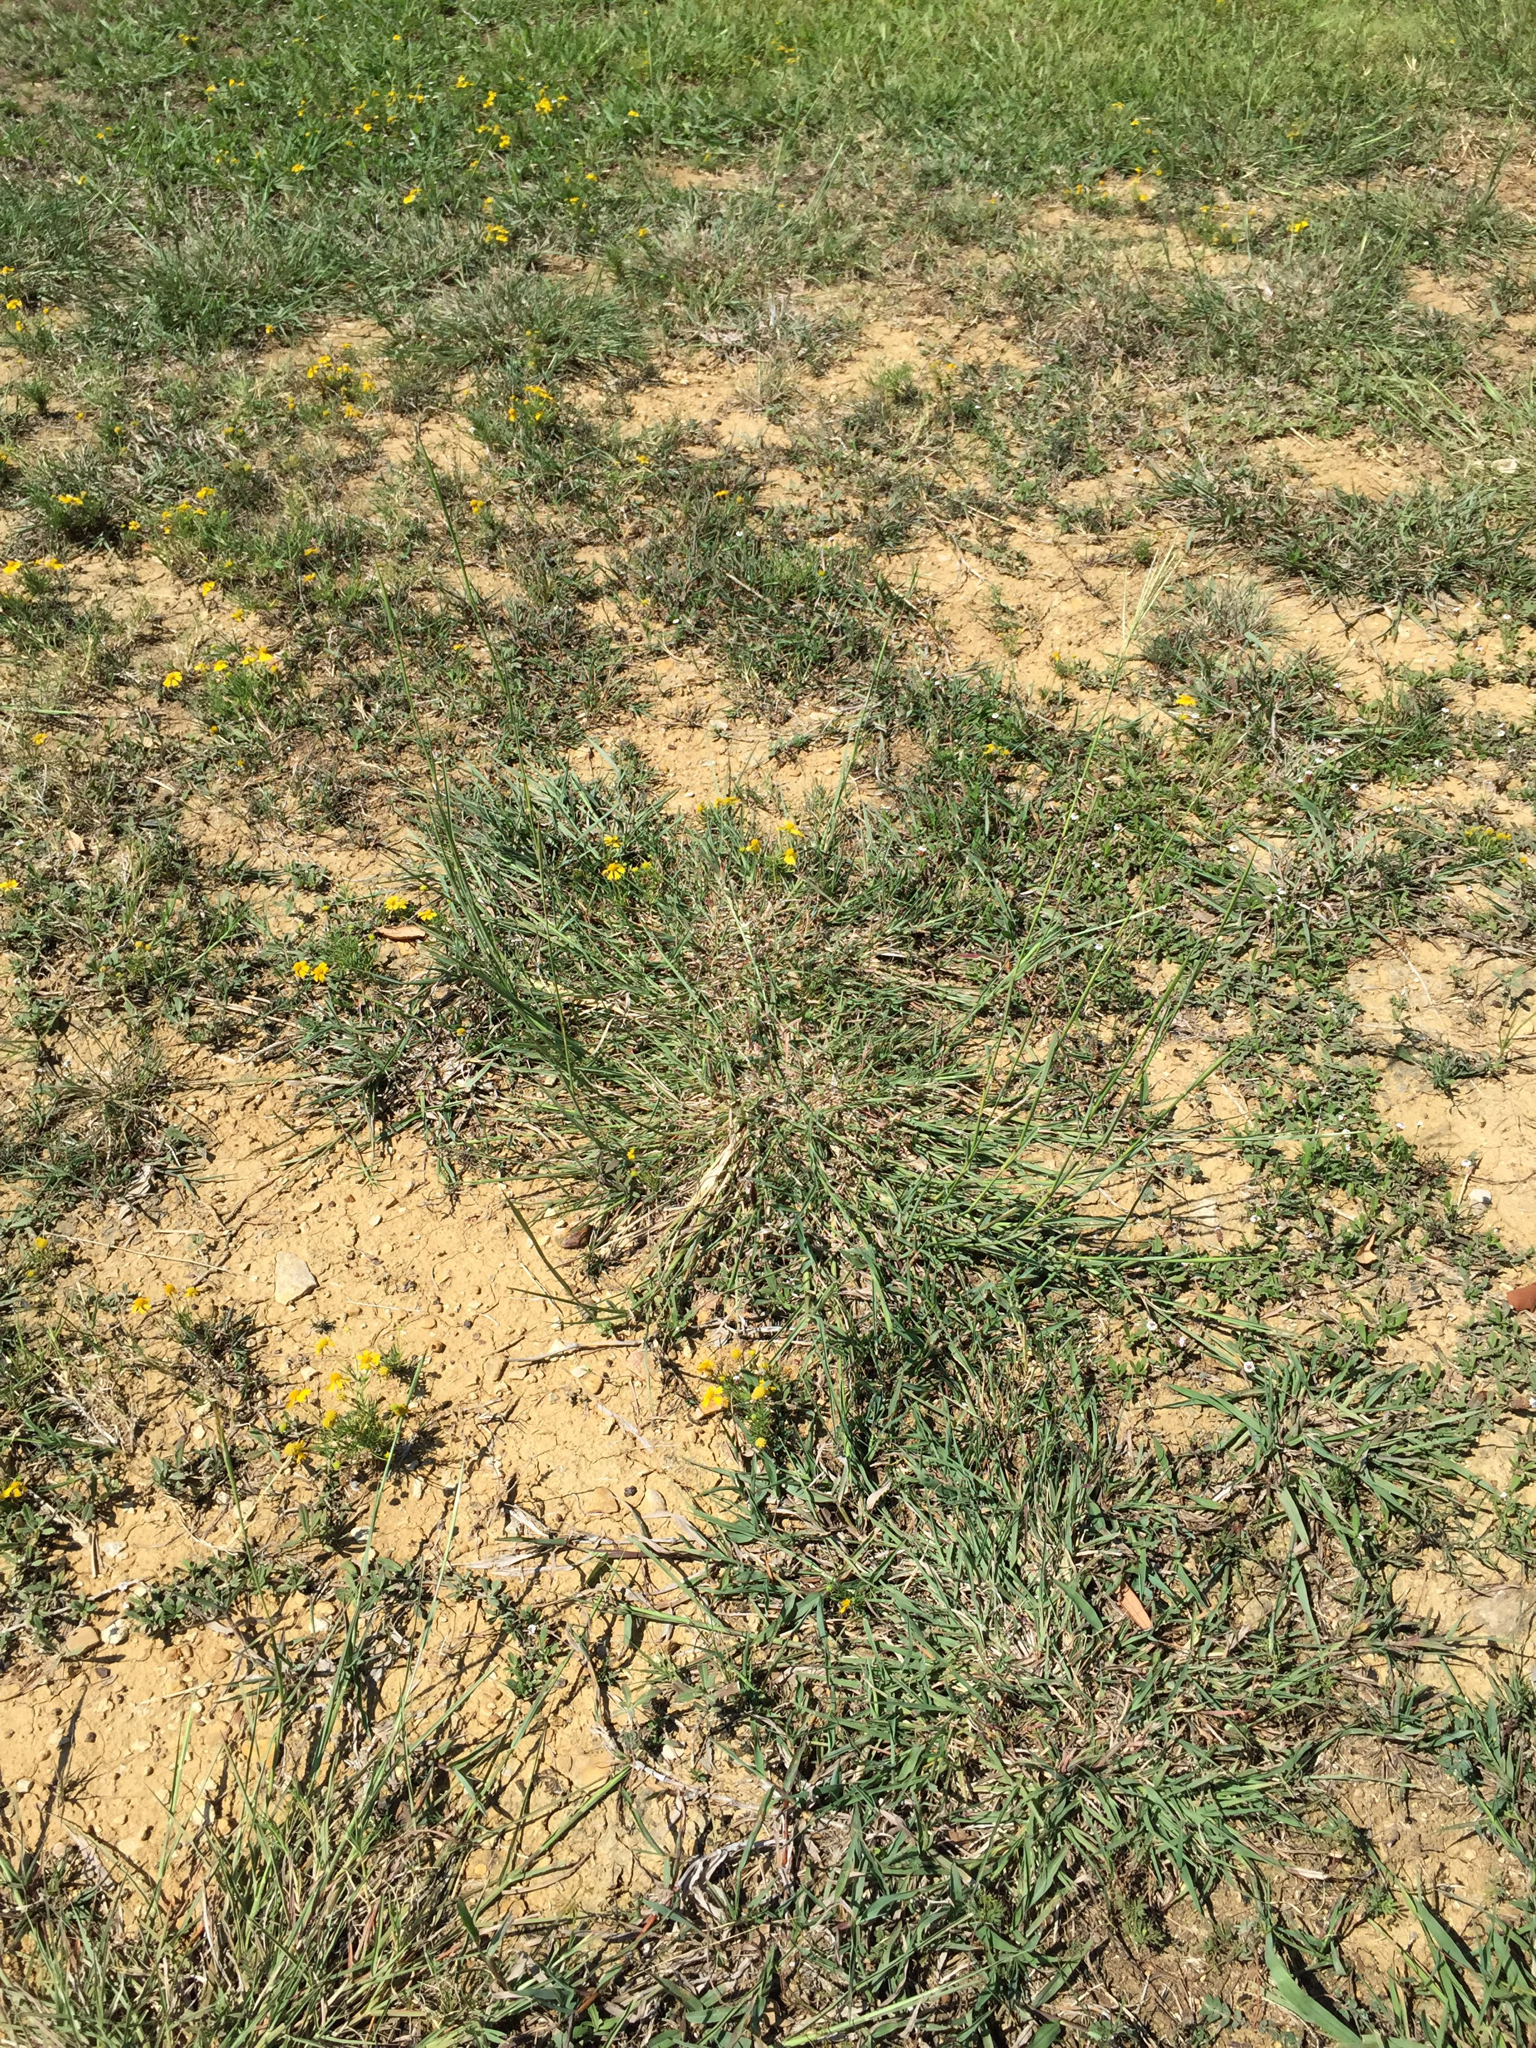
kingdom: Plantae
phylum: Tracheophyta
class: Liliopsida
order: Poales
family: Poaceae
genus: Bothriochloa
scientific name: Bothriochloa ischaemum
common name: Yellow bluestem
